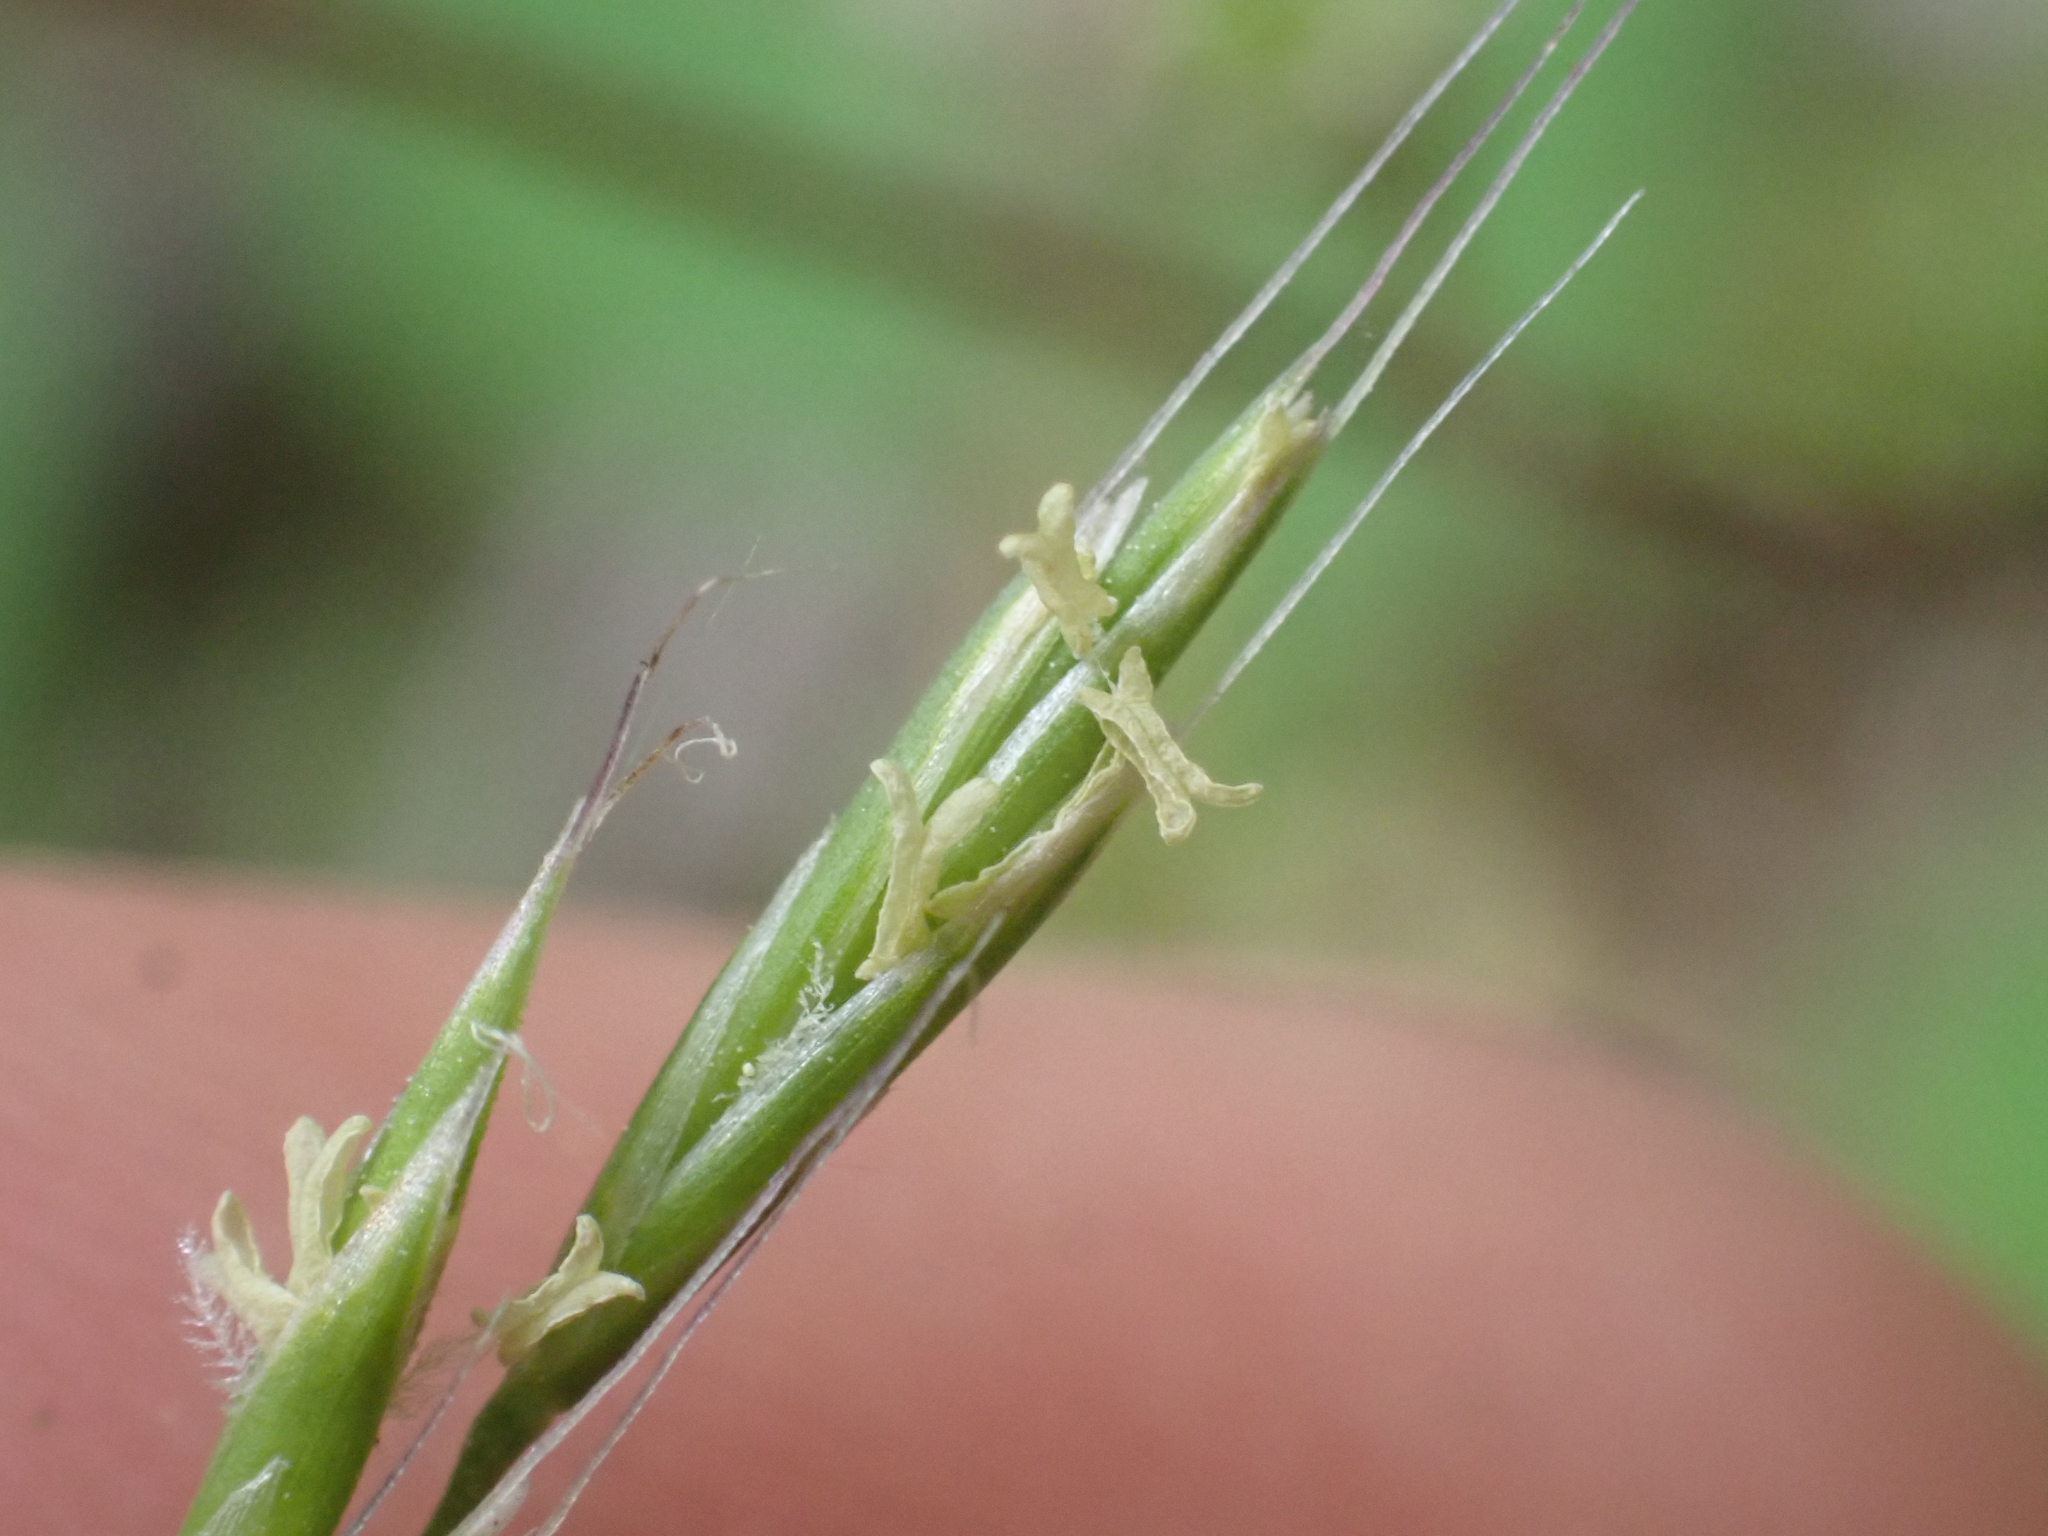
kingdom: Plantae
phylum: Tracheophyta
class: Liliopsida
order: Poales
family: Poaceae
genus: Festuca
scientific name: Festuca occidentalis
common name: Western fescue
